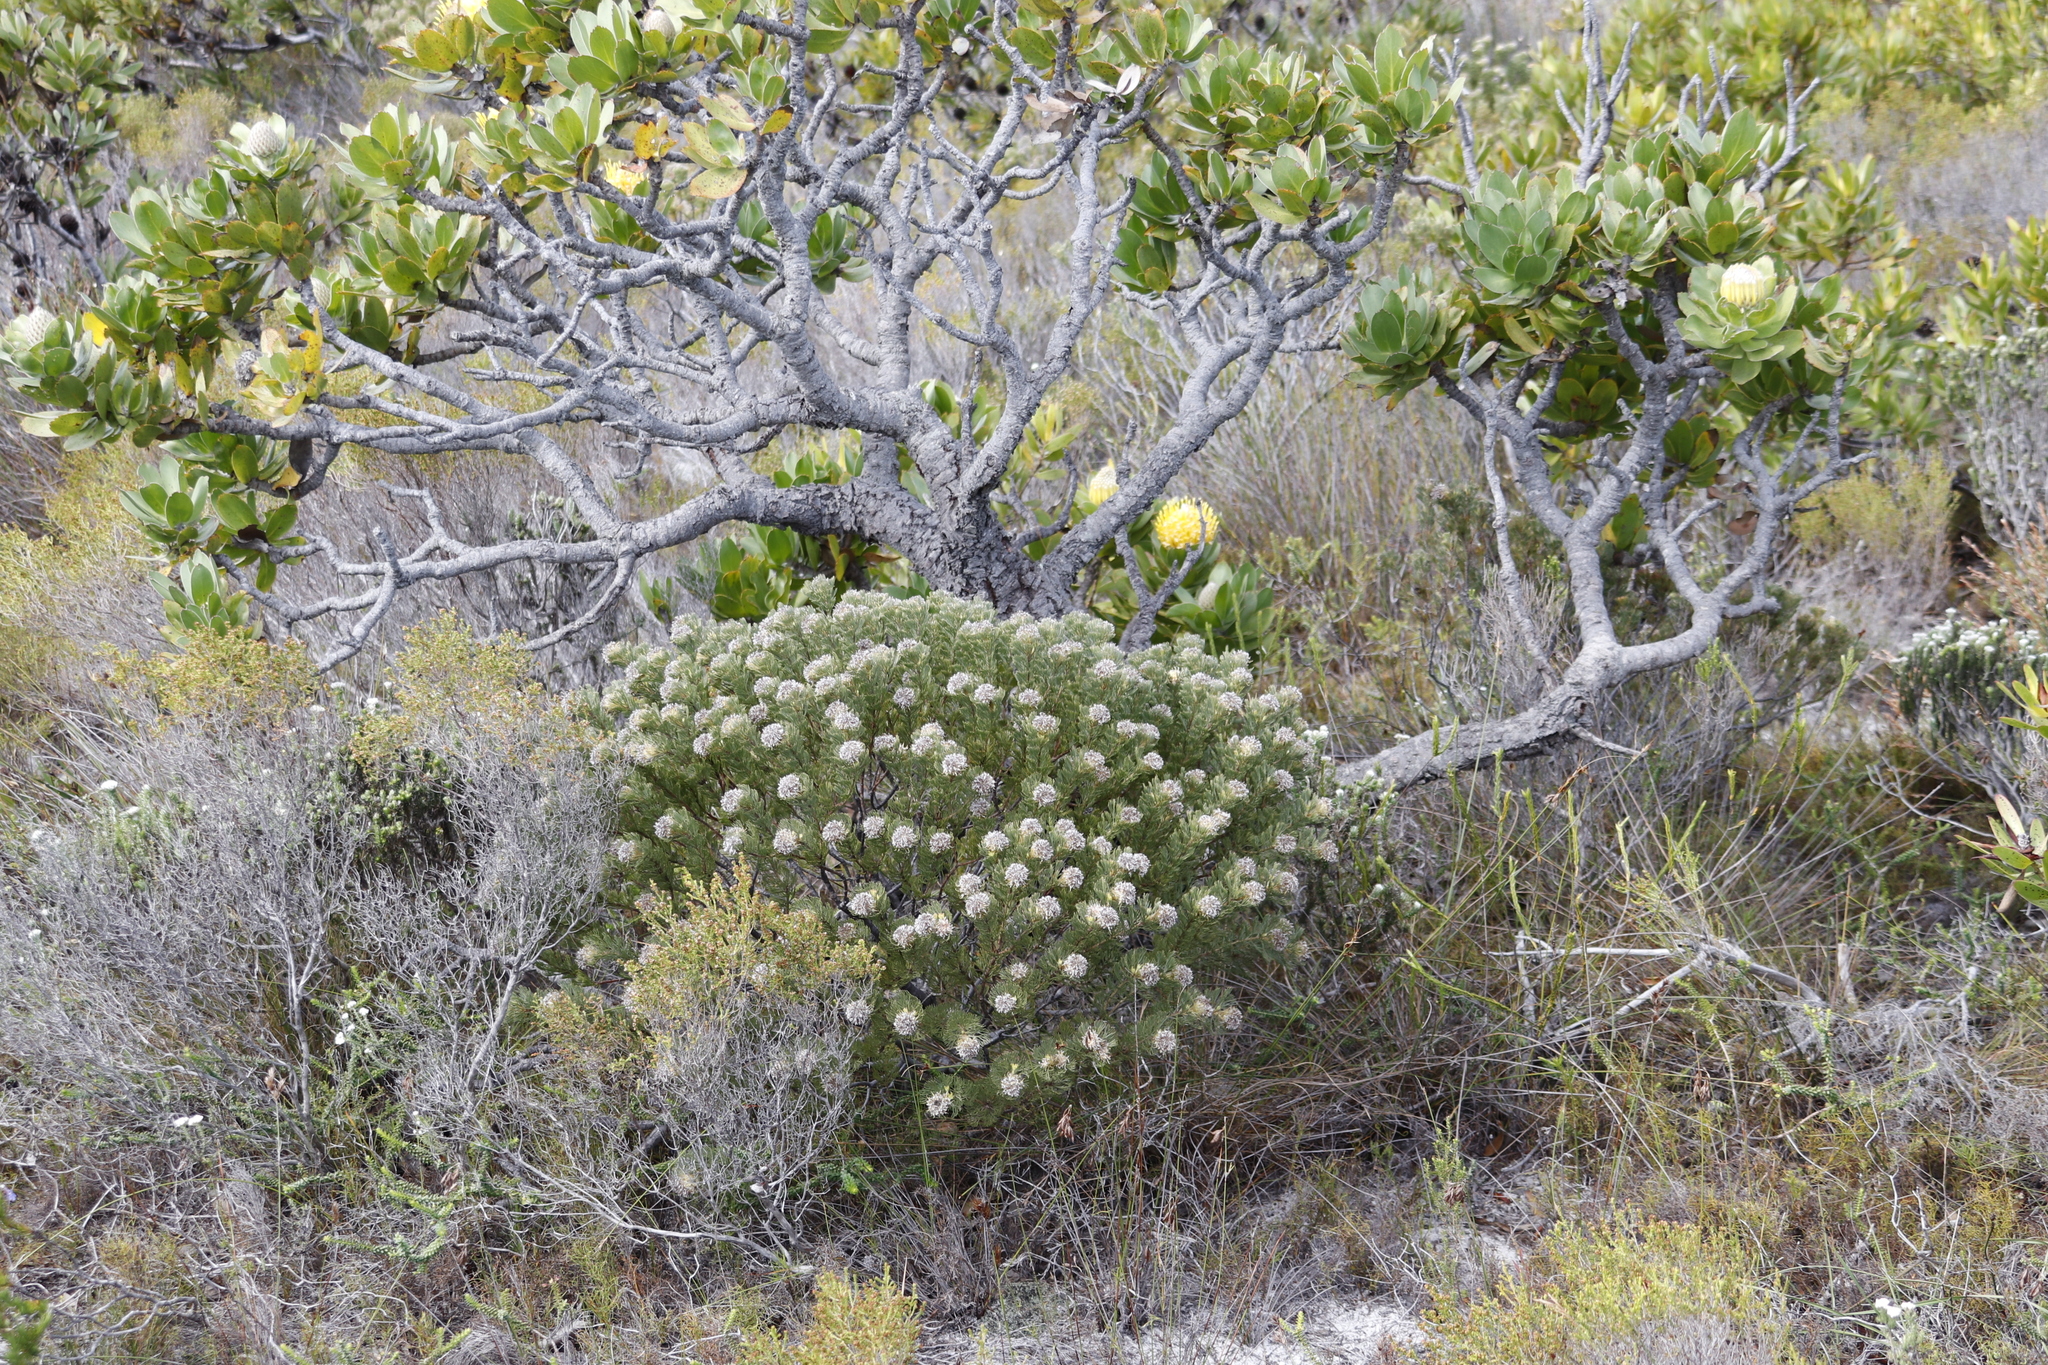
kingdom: Plantae
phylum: Tracheophyta
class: Magnoliopsida
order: Proteales
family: Proteaceae
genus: Serruria
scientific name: Serruria villosa
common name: Golden spiderhead
